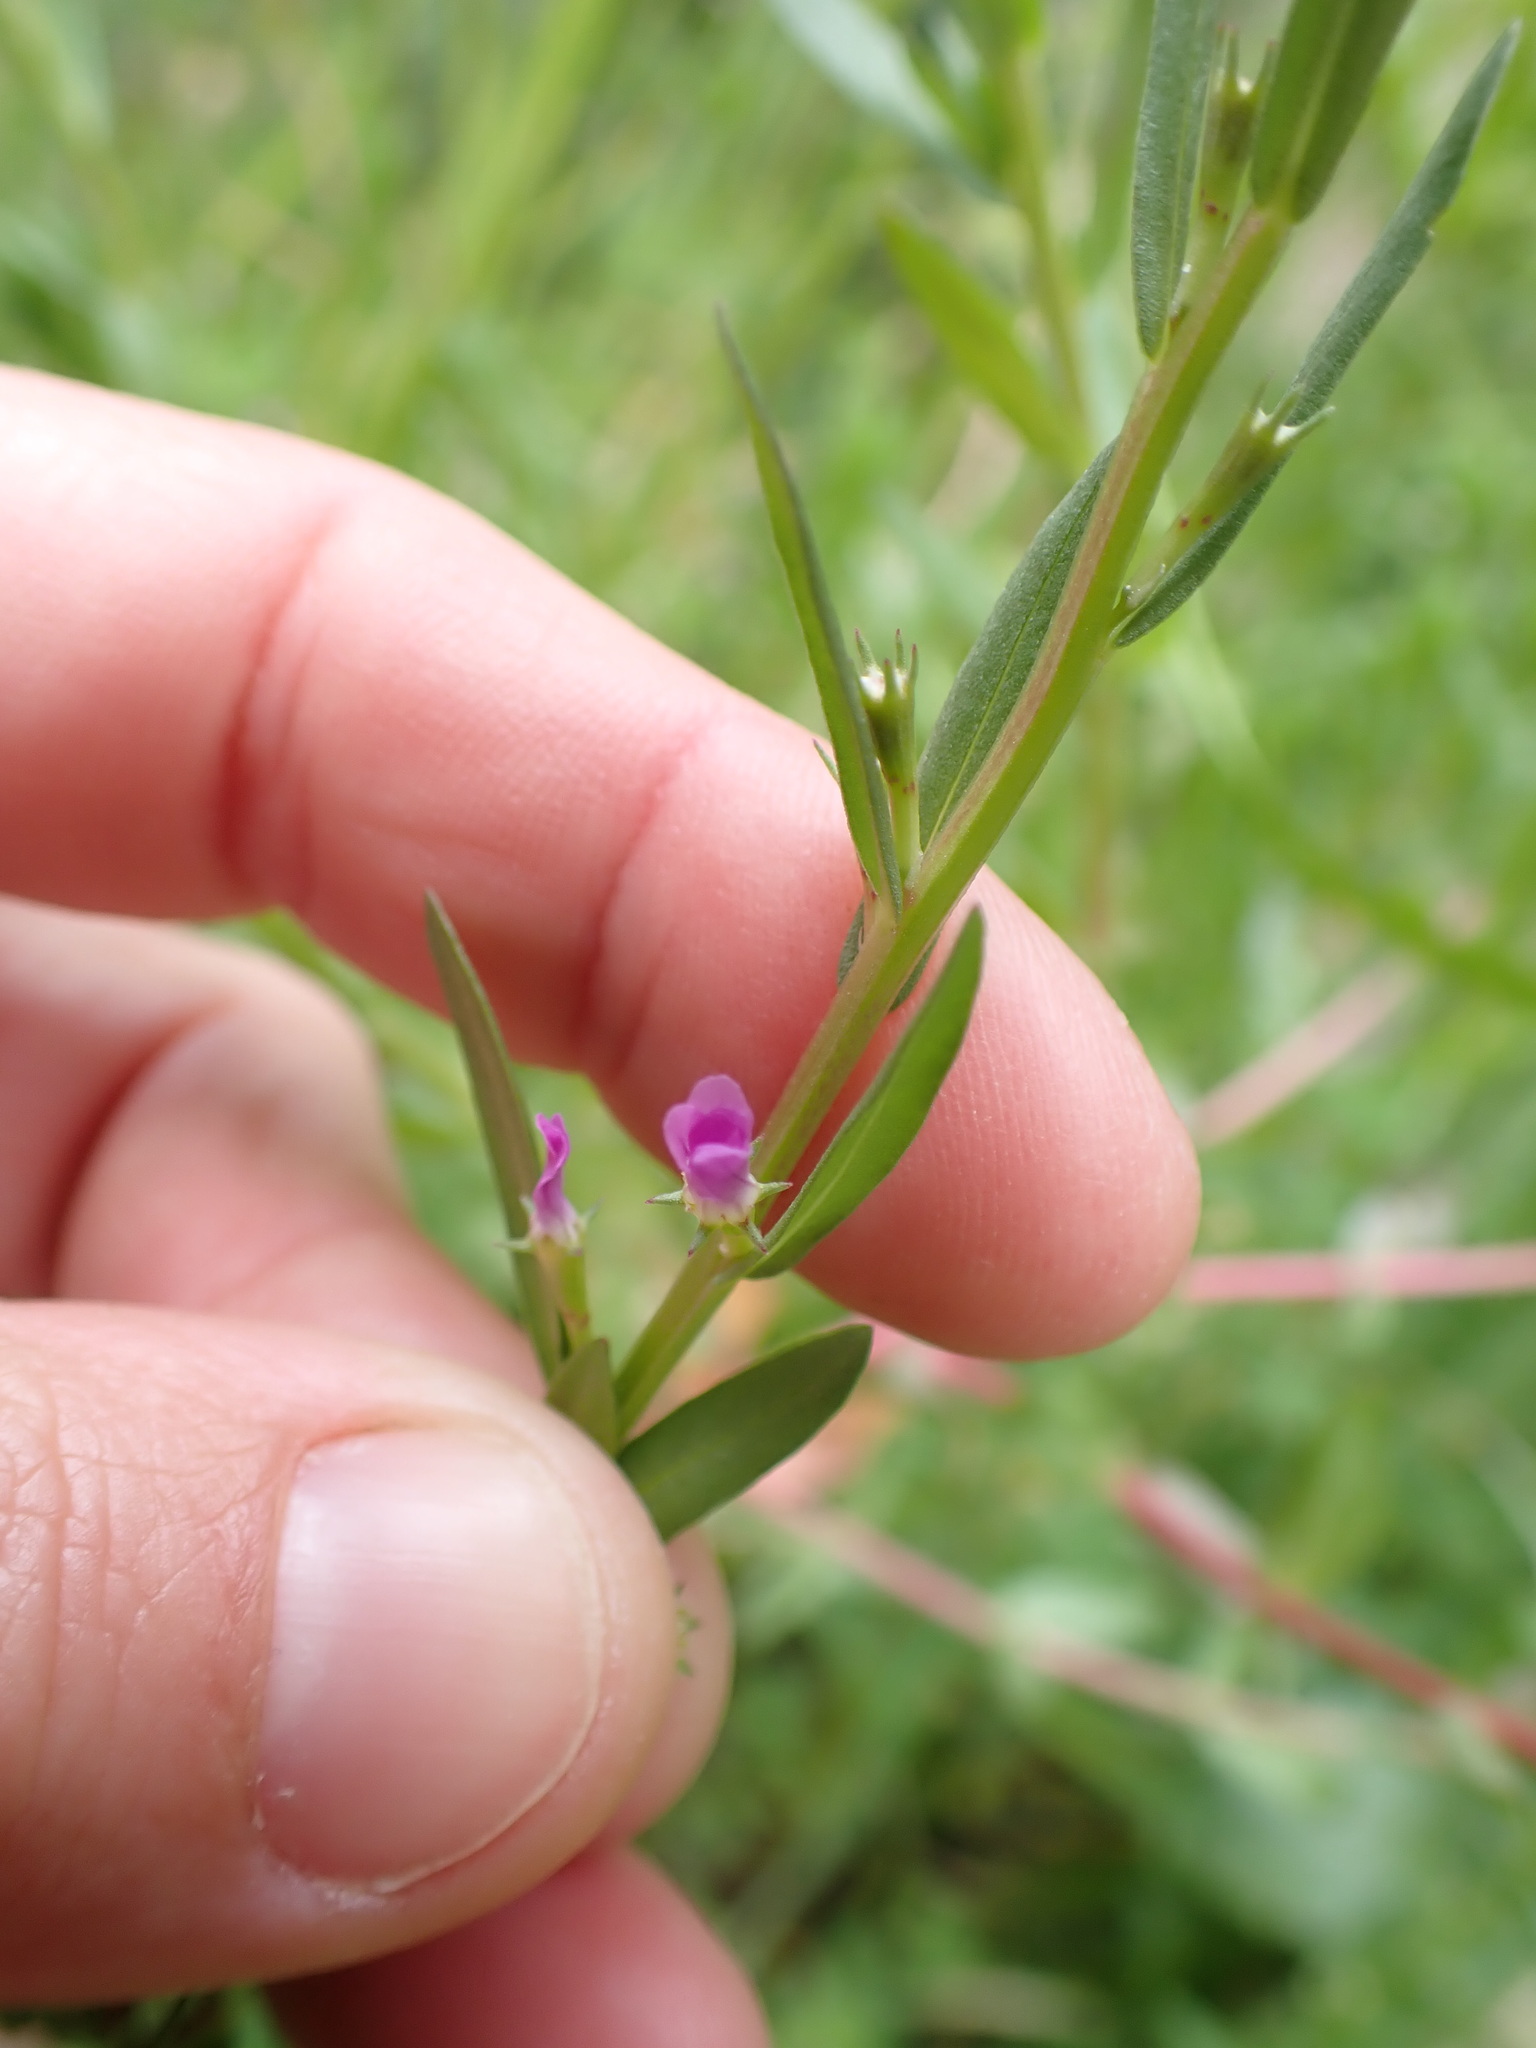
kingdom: Plantae
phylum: Tracheophyta
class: Magnoliopsida
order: Myrtales
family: Lythraceae
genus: Lythrum
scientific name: Lythrum hyssopifolia
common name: Grass-poly
